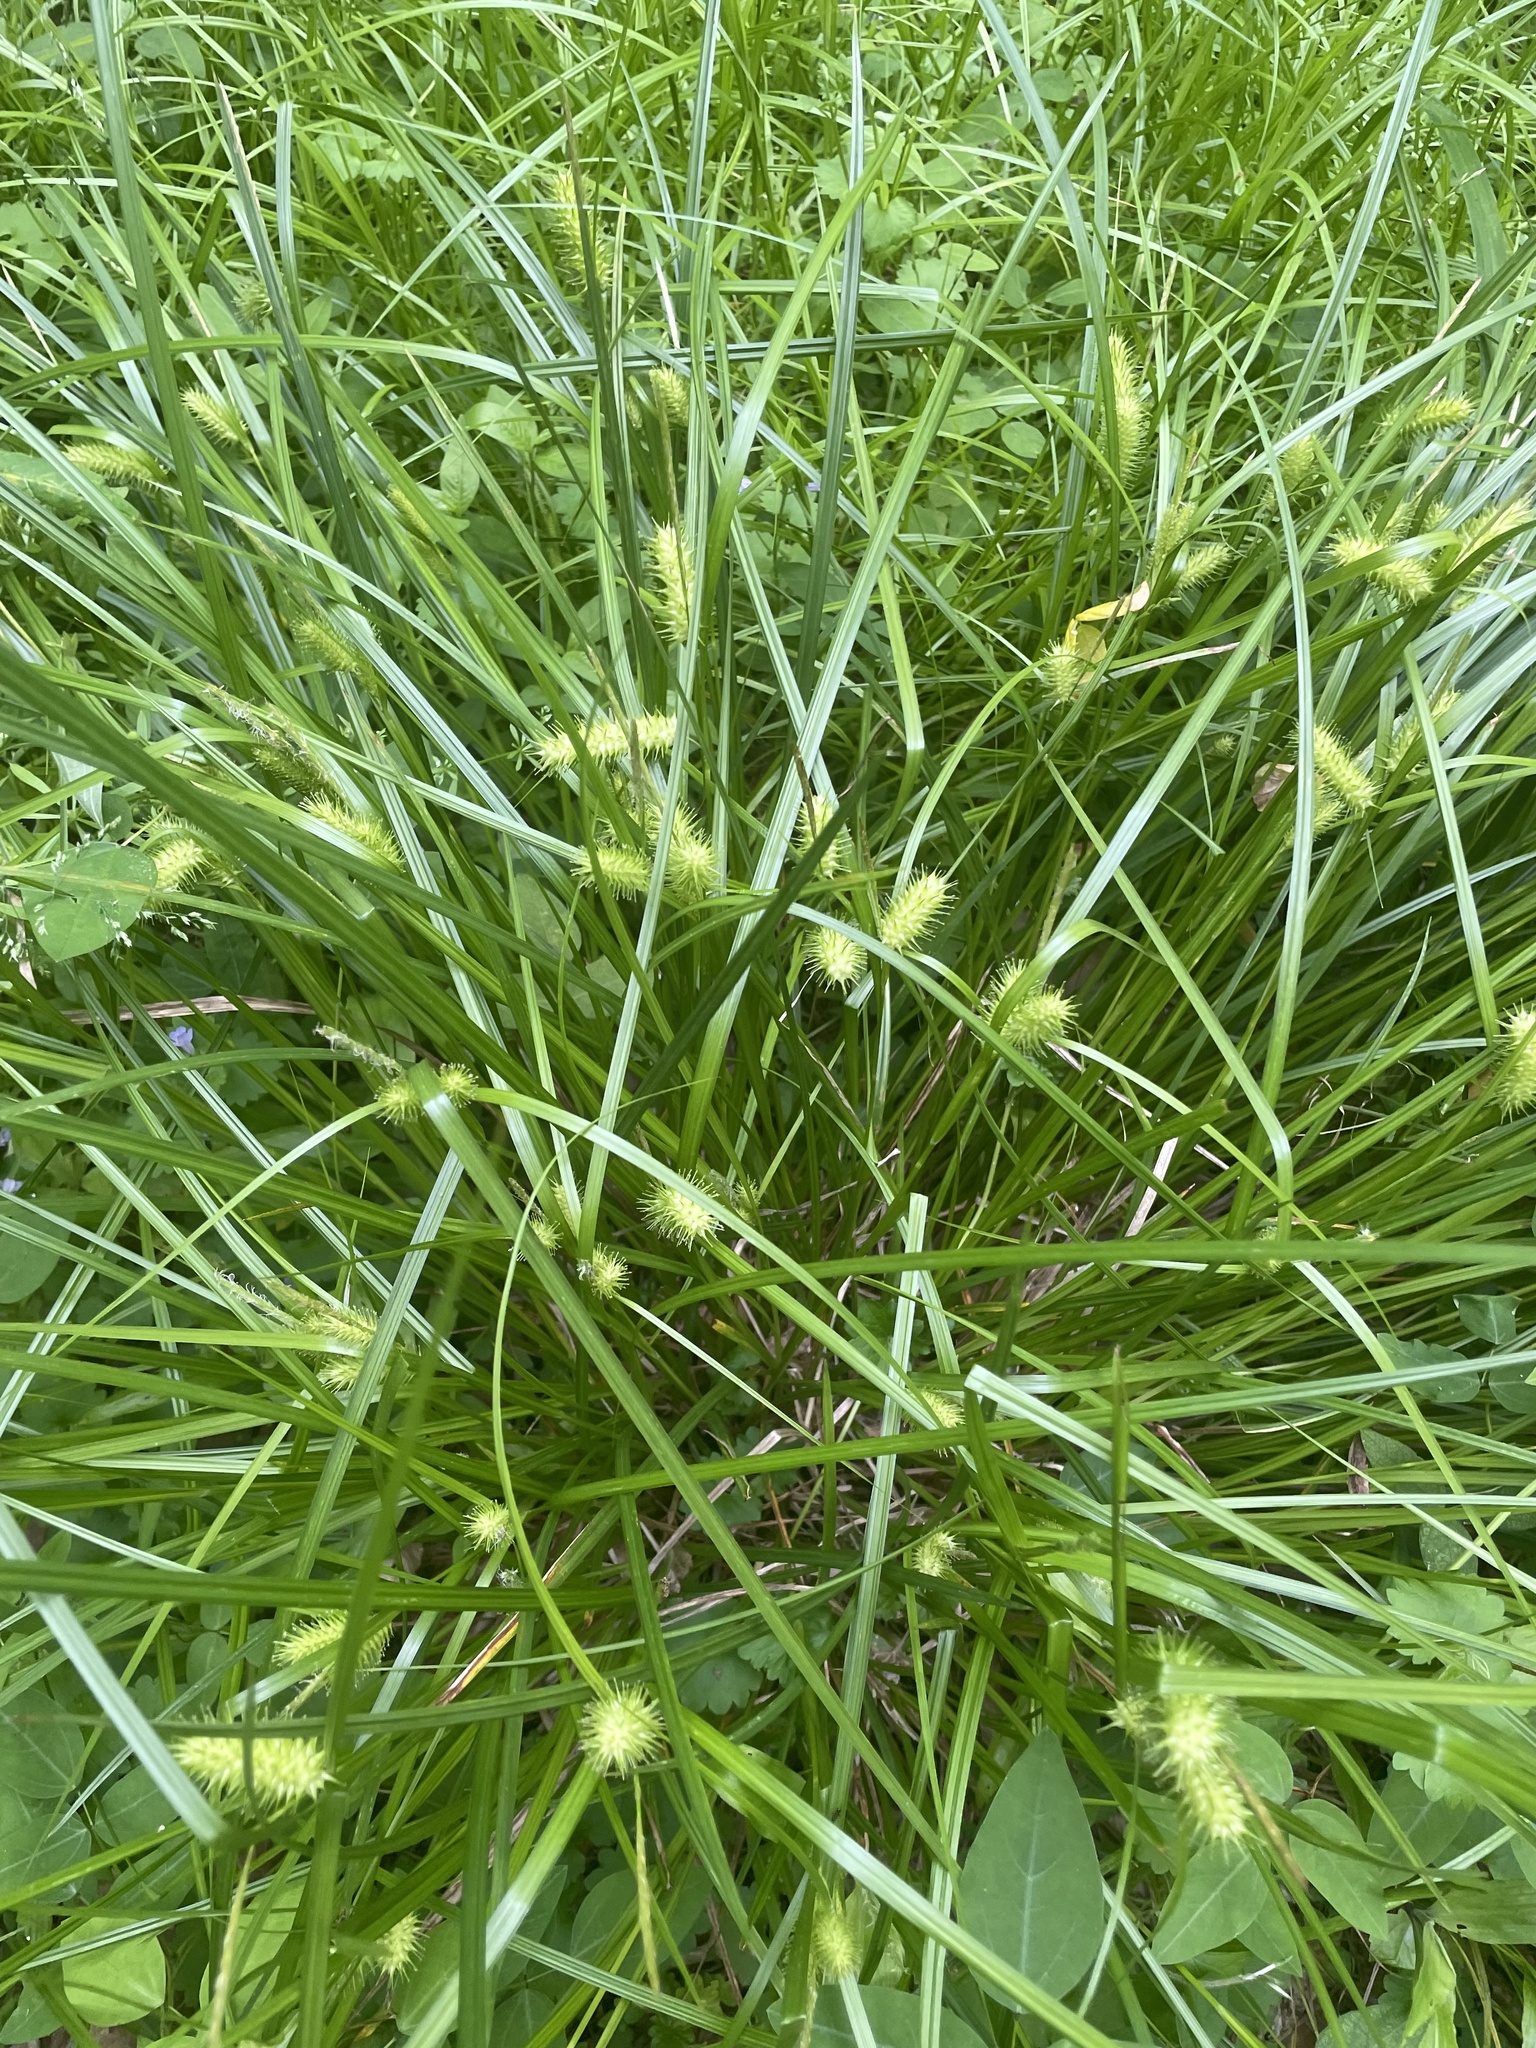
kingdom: Plantae
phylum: Tracheophyta
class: Liliopsida
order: Poales
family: Cyperaceae
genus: Carex
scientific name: Carex lurida
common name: Sallow sedge
